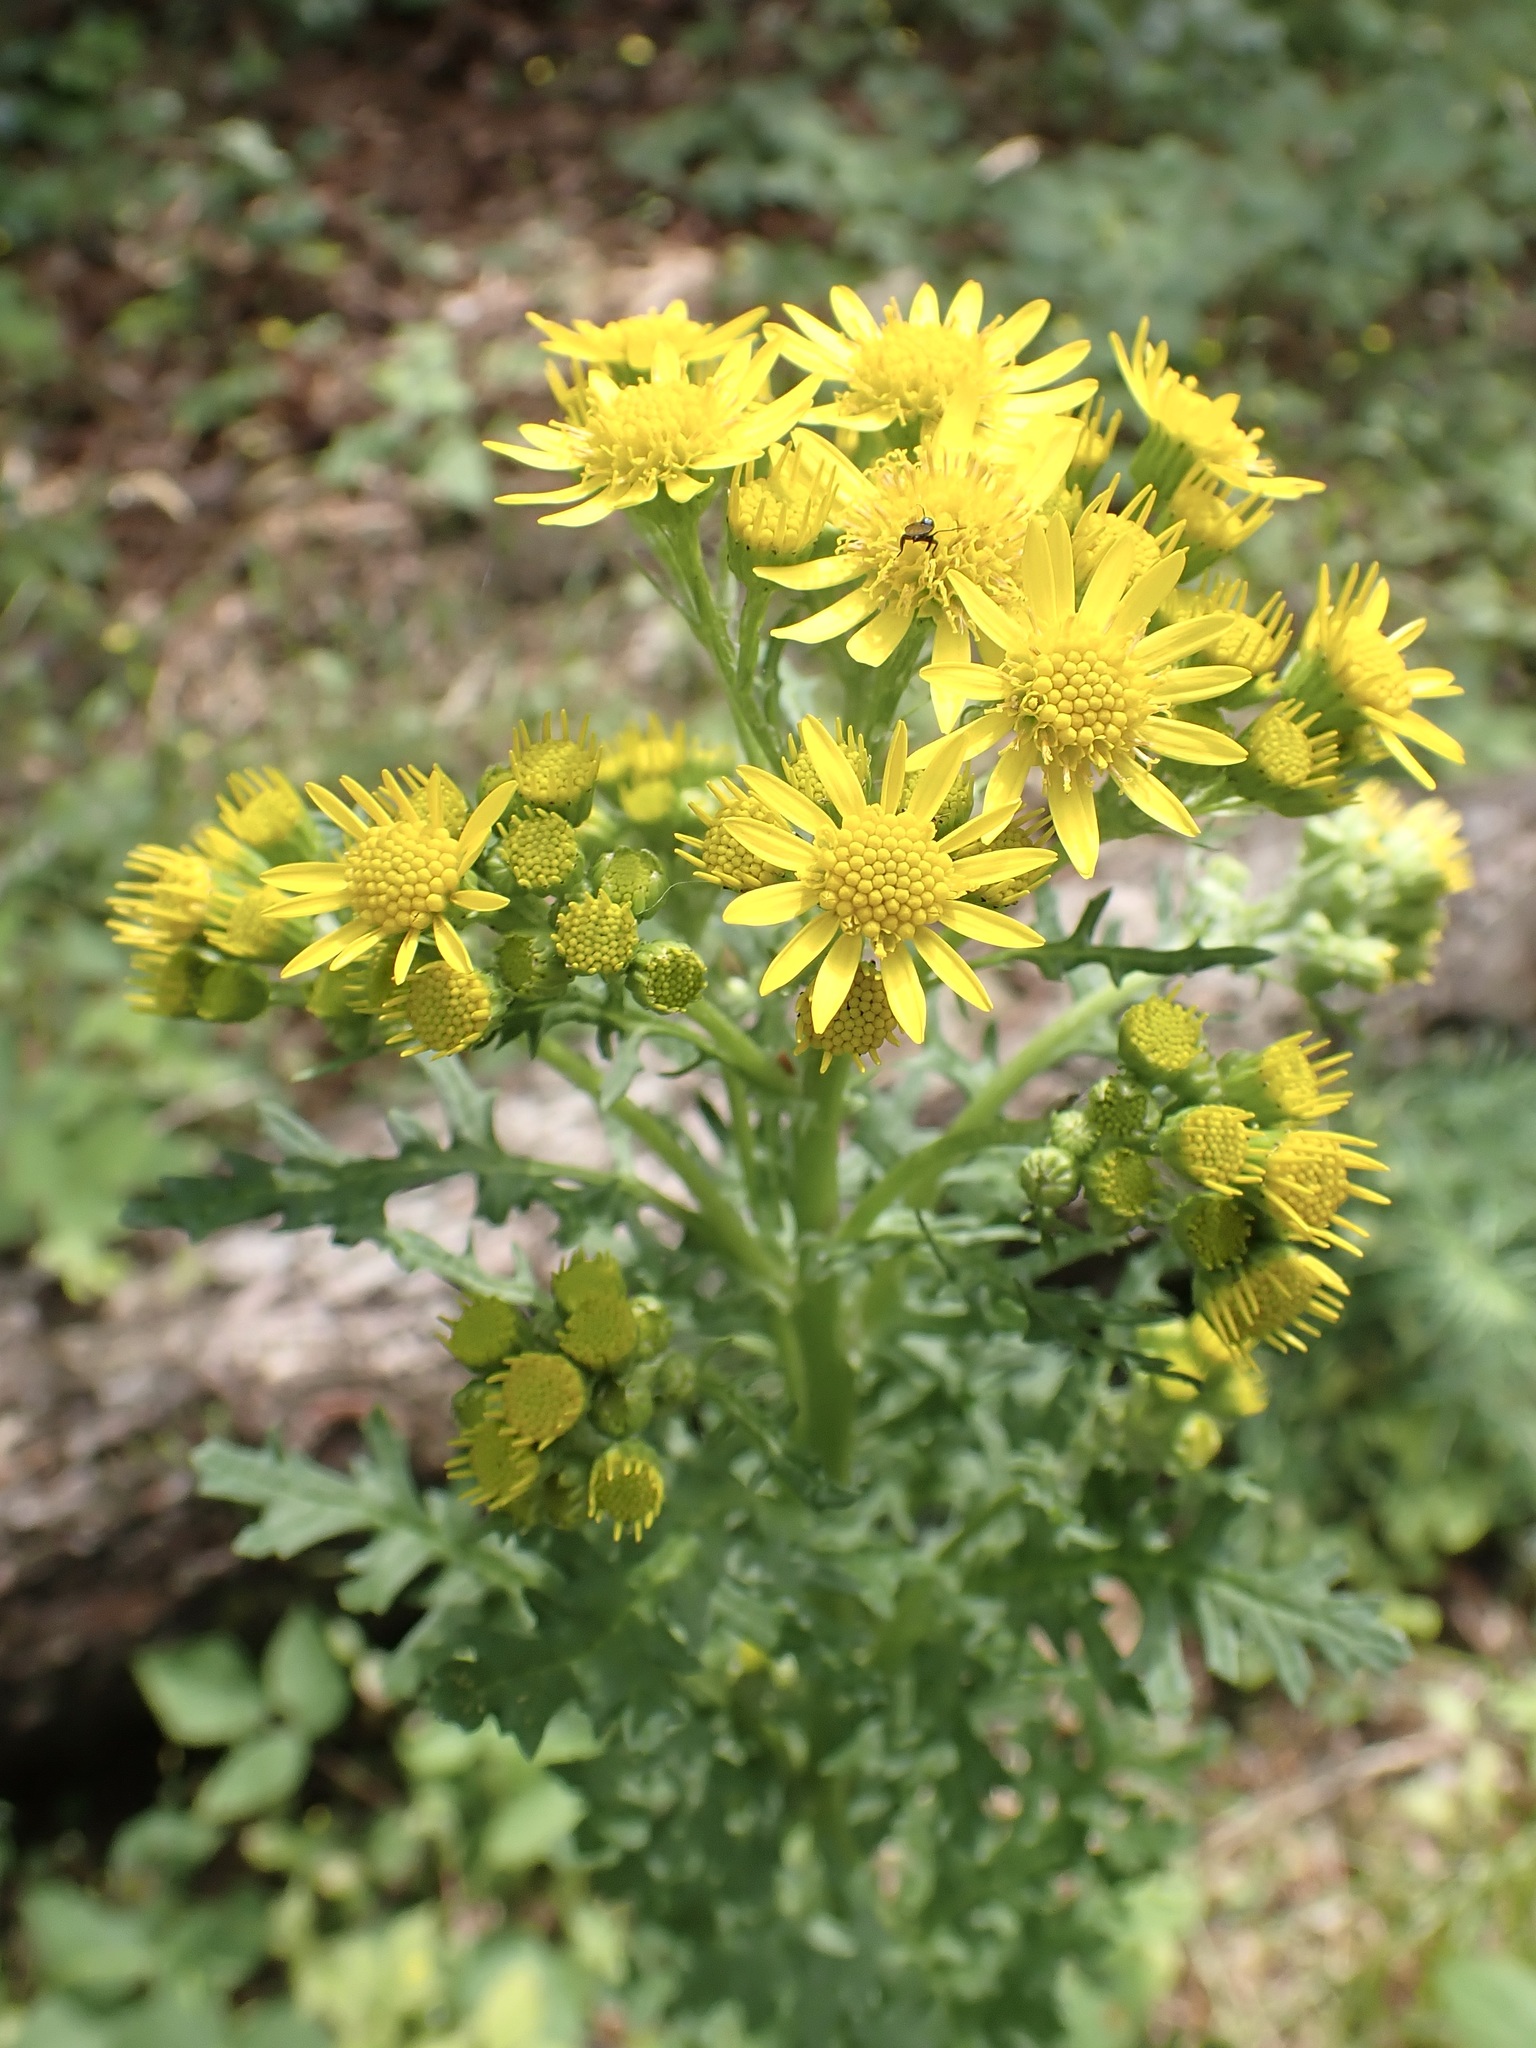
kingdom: Plantae
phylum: Tracheophyta
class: Magnoliopsida
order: Asterales
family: Asteraceae
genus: Jacobaea
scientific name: Jacobaea vulgaris
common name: Stinking willie
